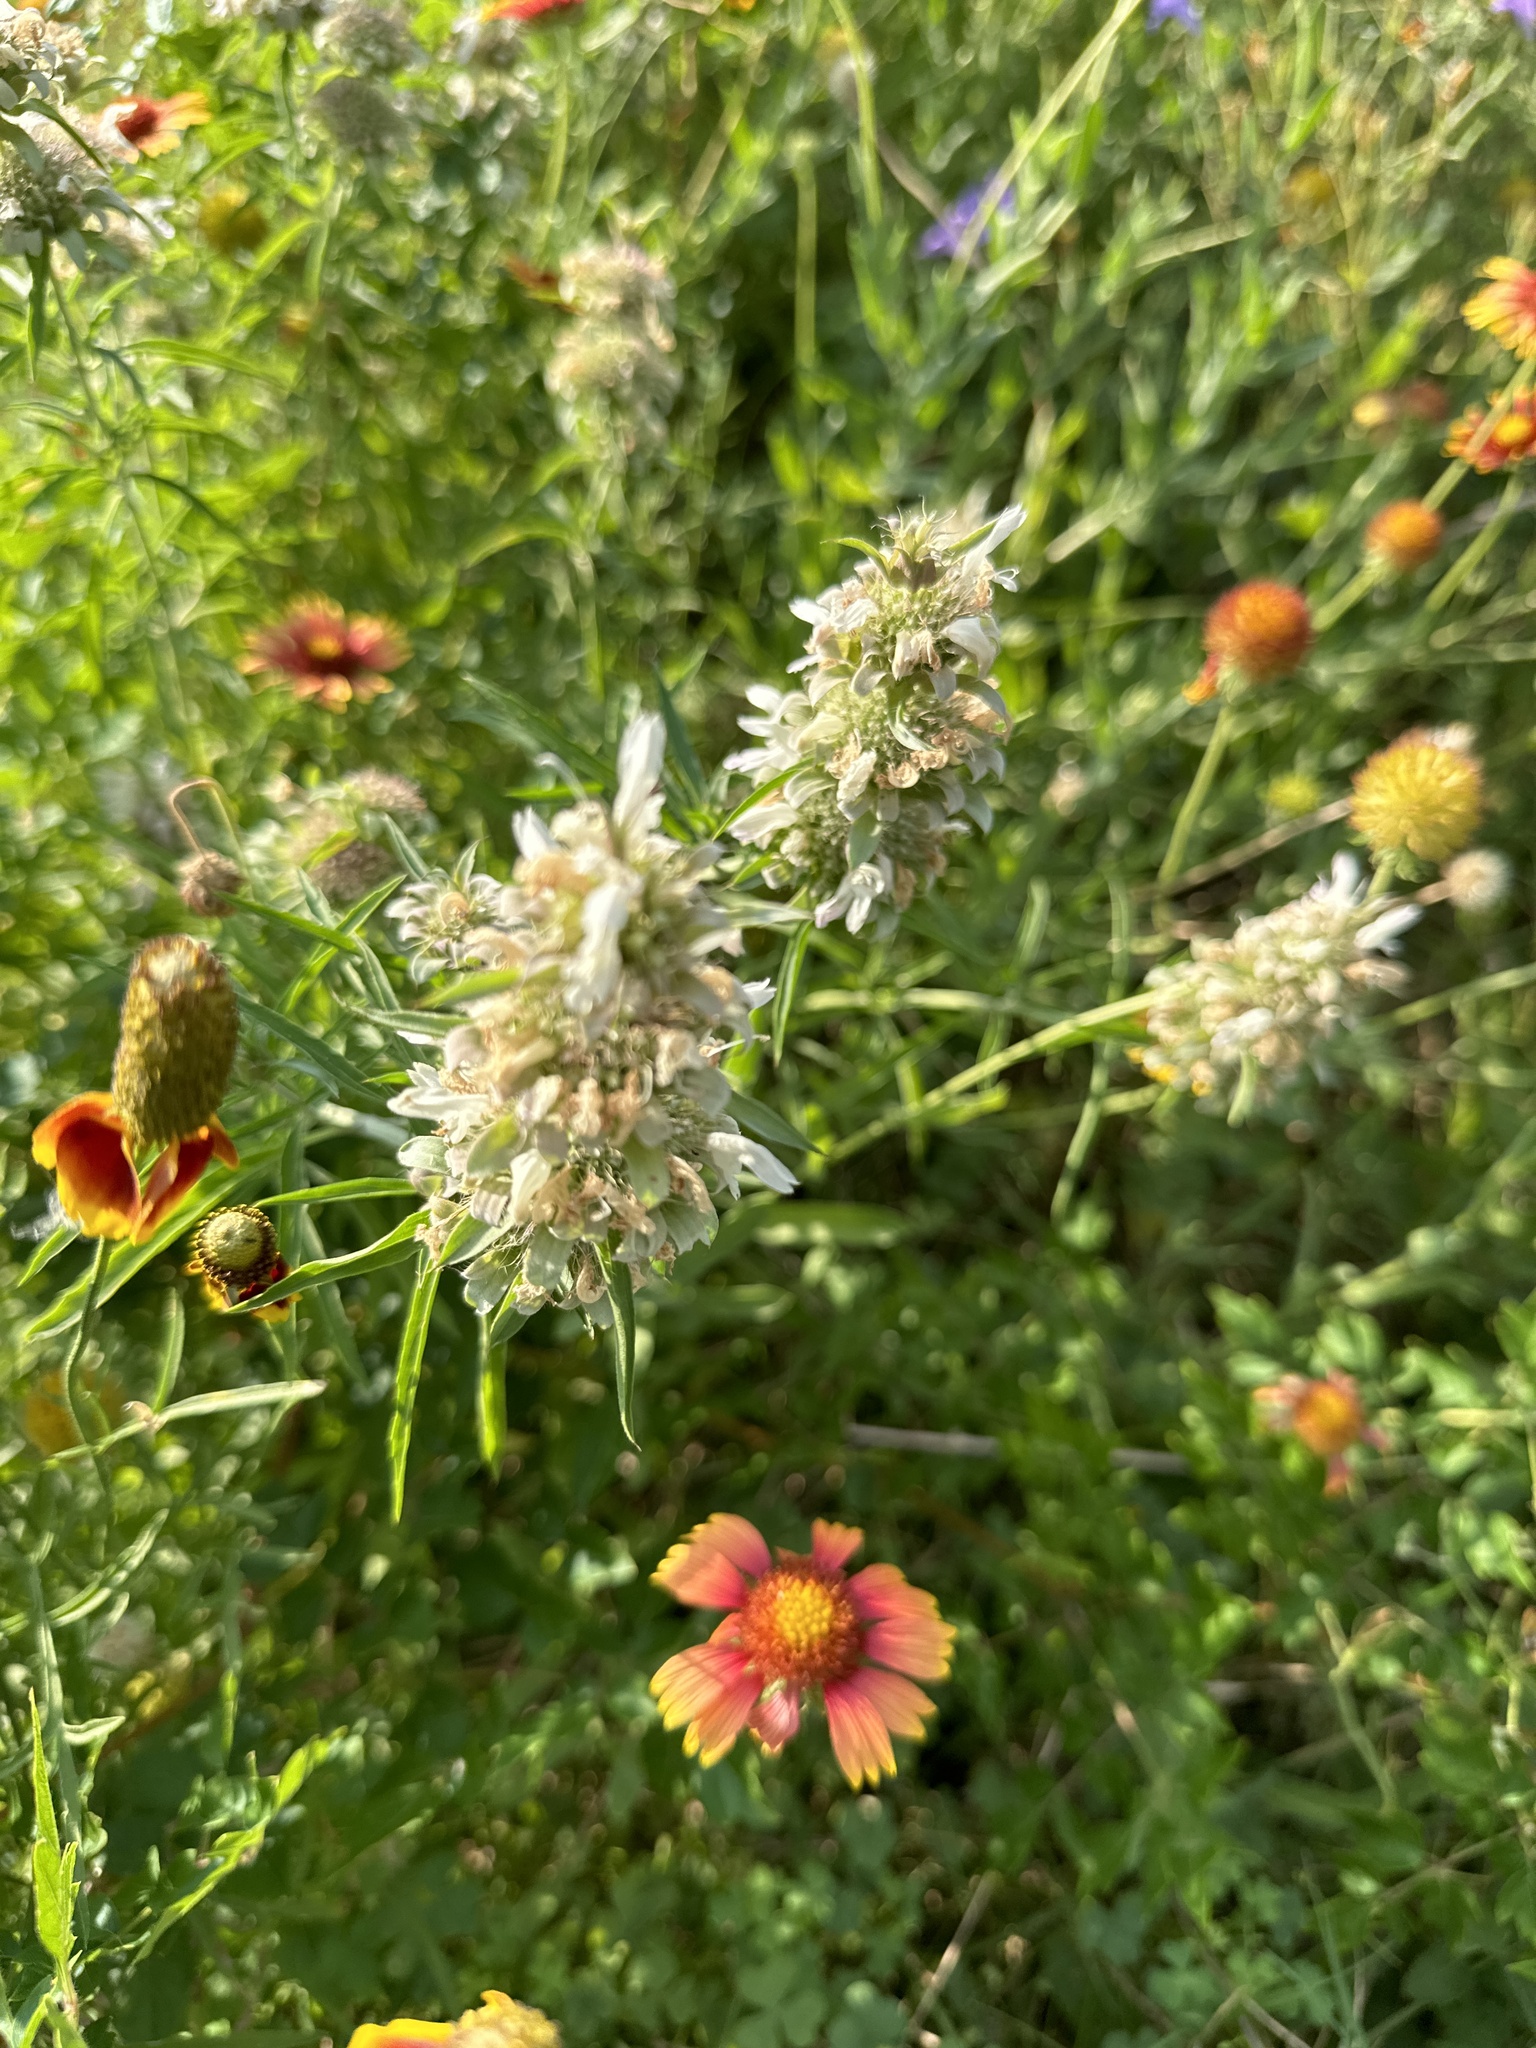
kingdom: Plantae
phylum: Tracheophyta
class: Magnoliopsida
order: Lamiales
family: Lamiaceae
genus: Monarda
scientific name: Monarda citriodora
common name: Lemon beebalm
